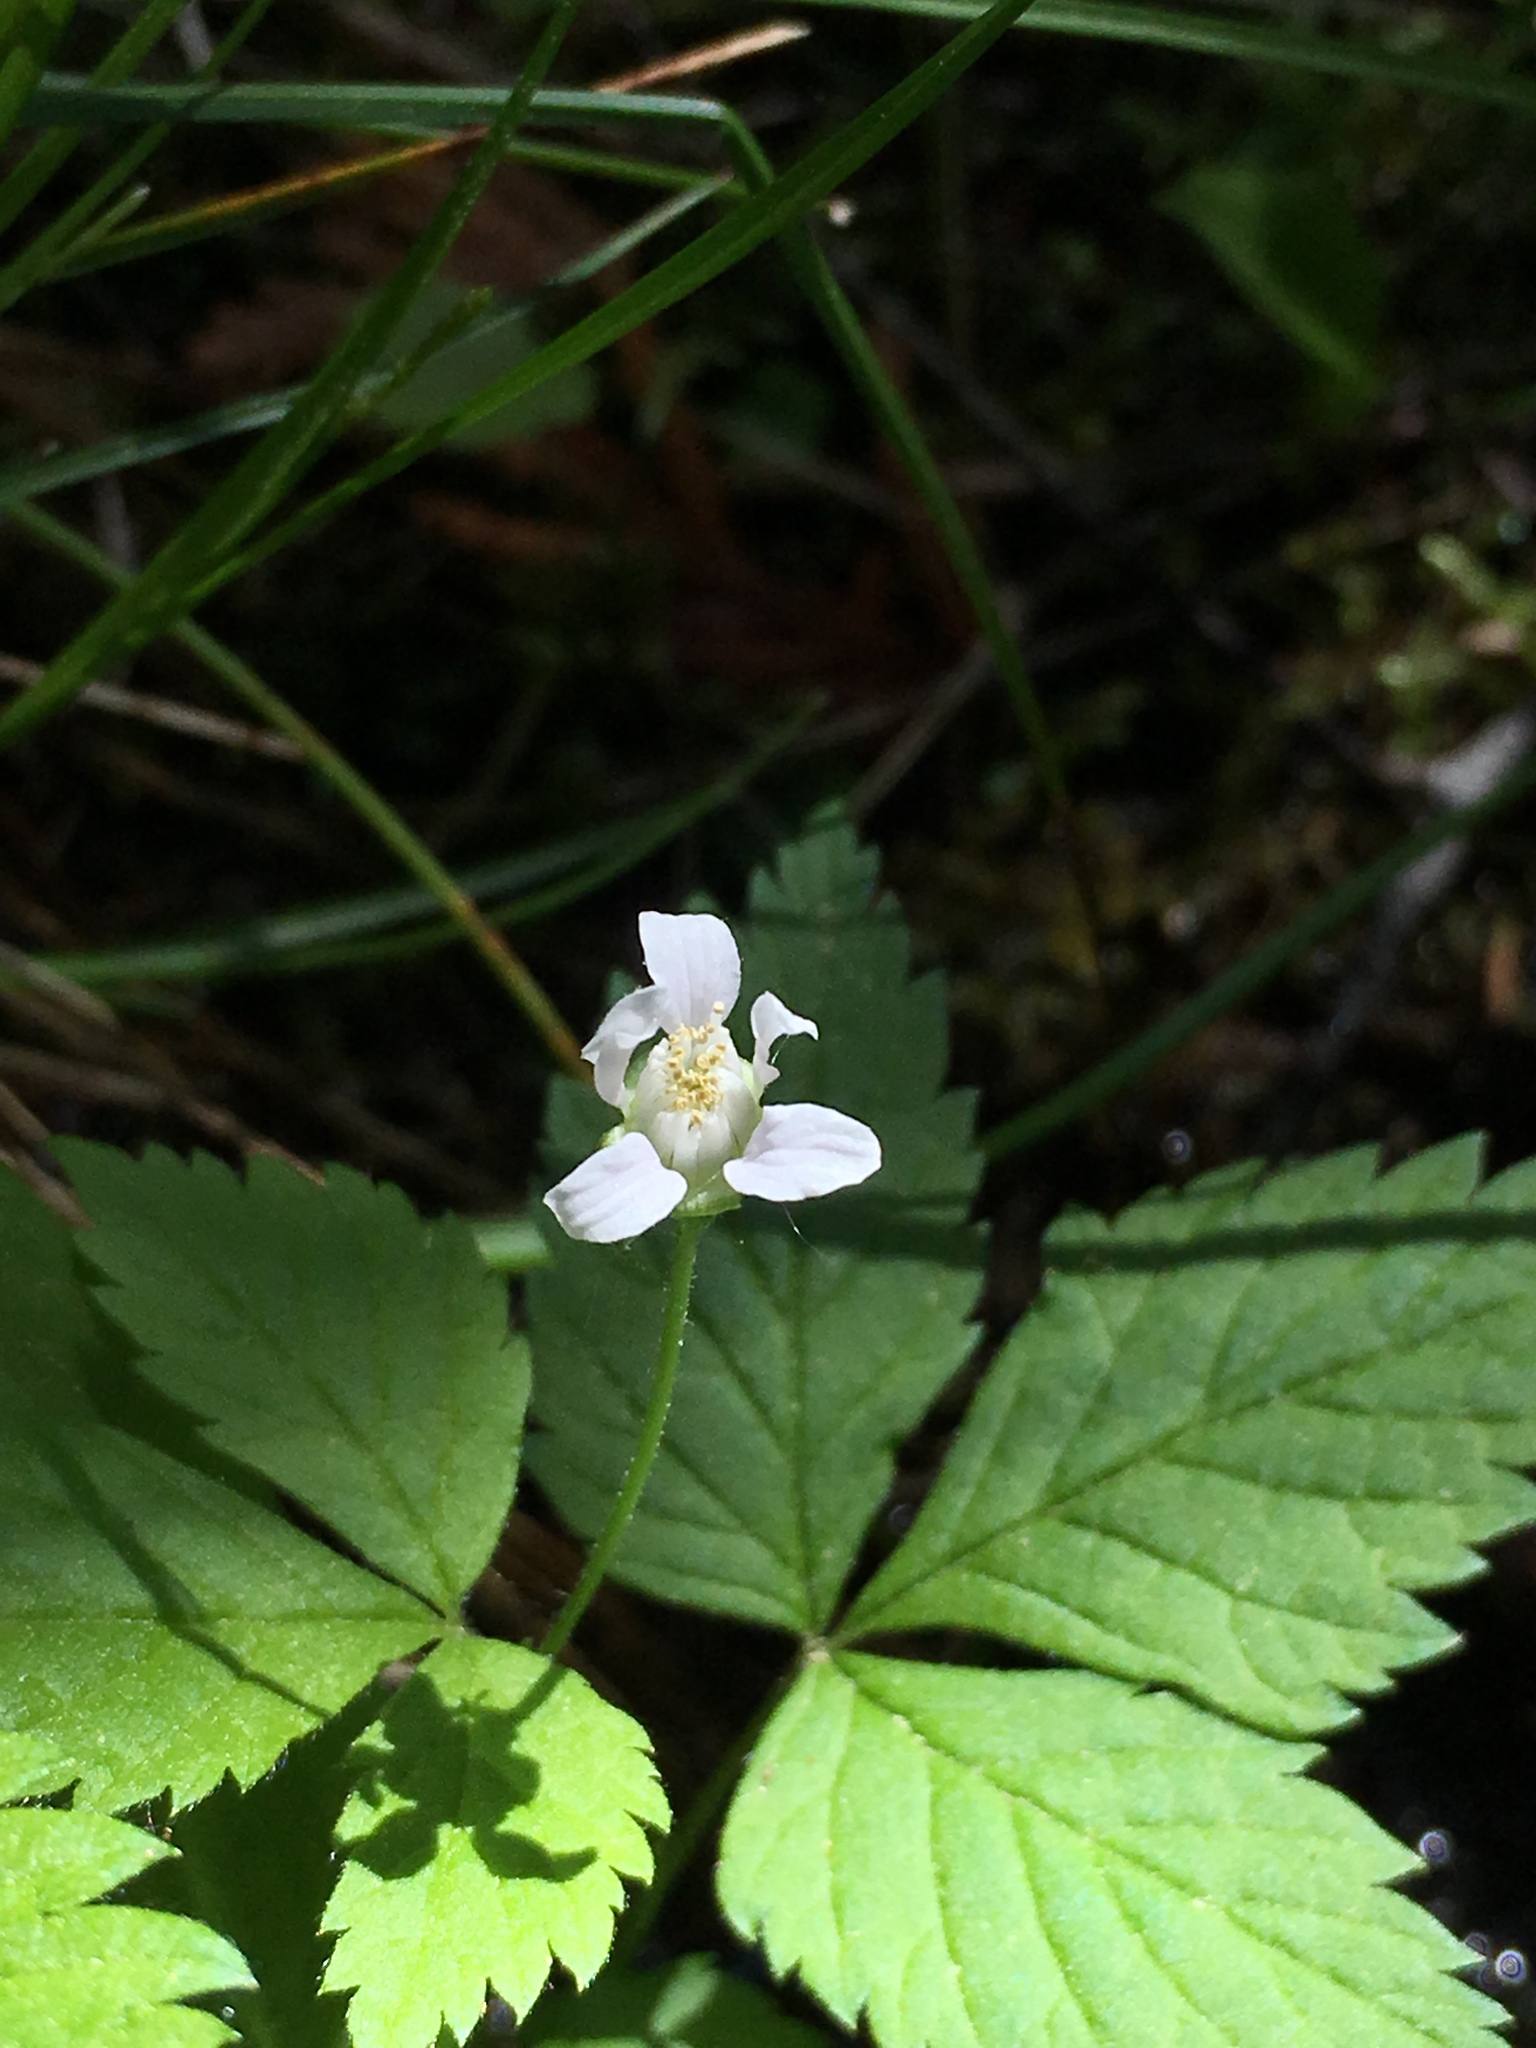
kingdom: Plantae
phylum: Tracheophyta
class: Magnoliopsida
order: Rosales
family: Rosaceae
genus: Rubus
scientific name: Rubus pubescens
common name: Dwarf raspberry
